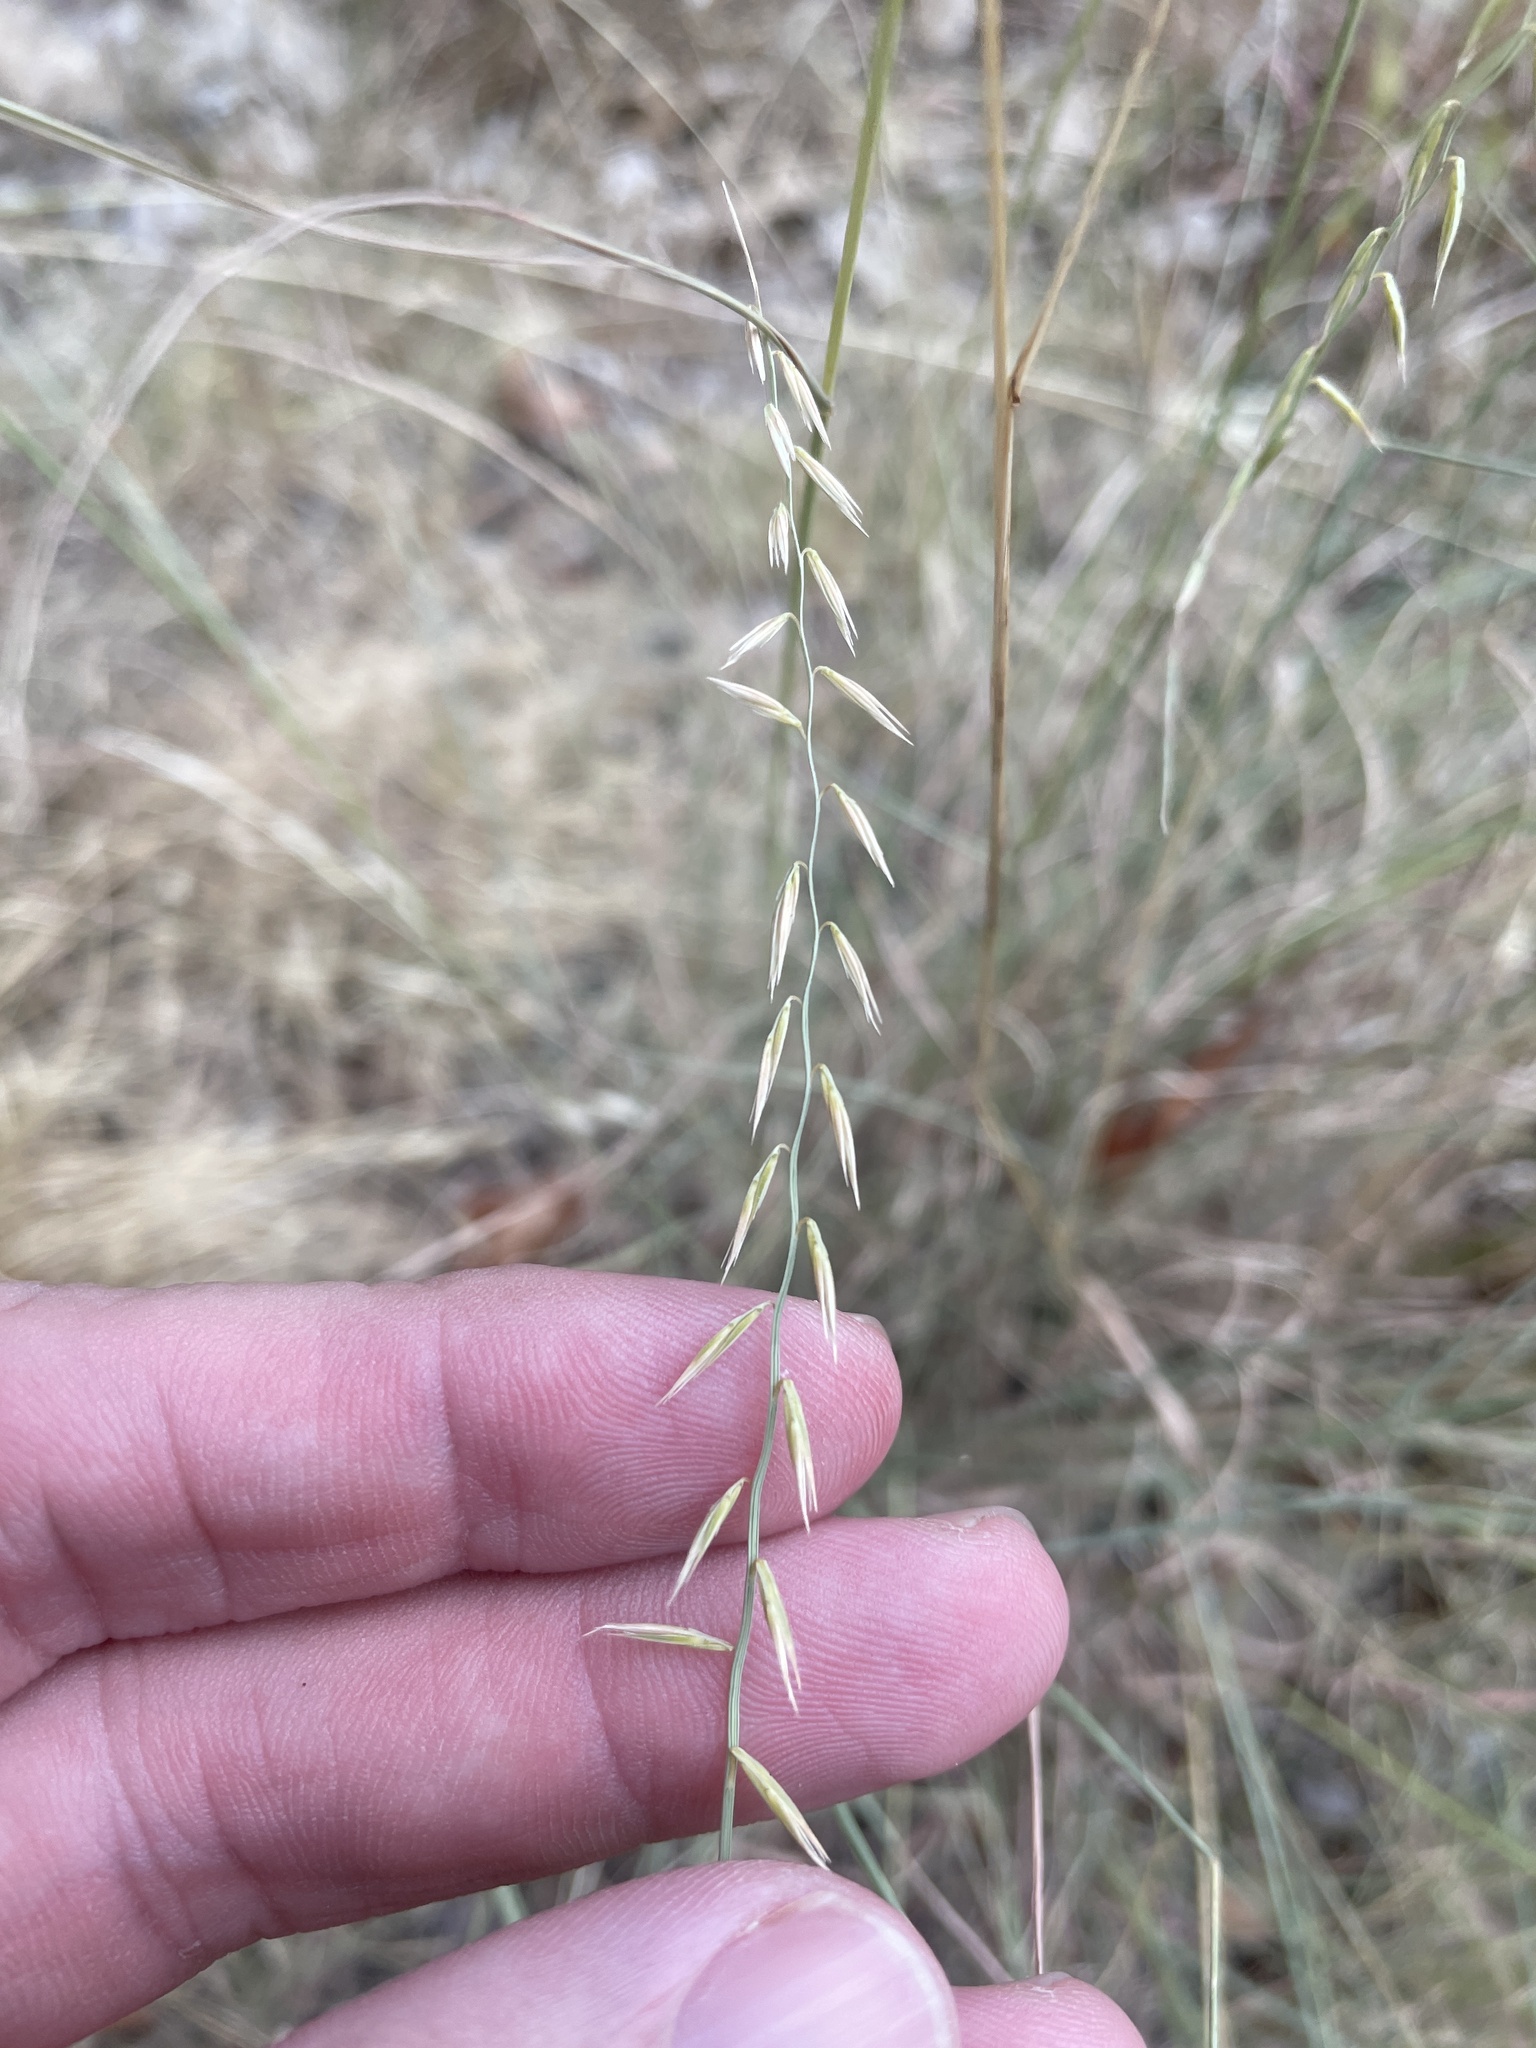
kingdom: Plantae
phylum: Tracheophyta
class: Liliopsida
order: Poales
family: Poaceae
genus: Bouteloua
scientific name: Bouteloua curtipendula
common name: Side-oats grama
